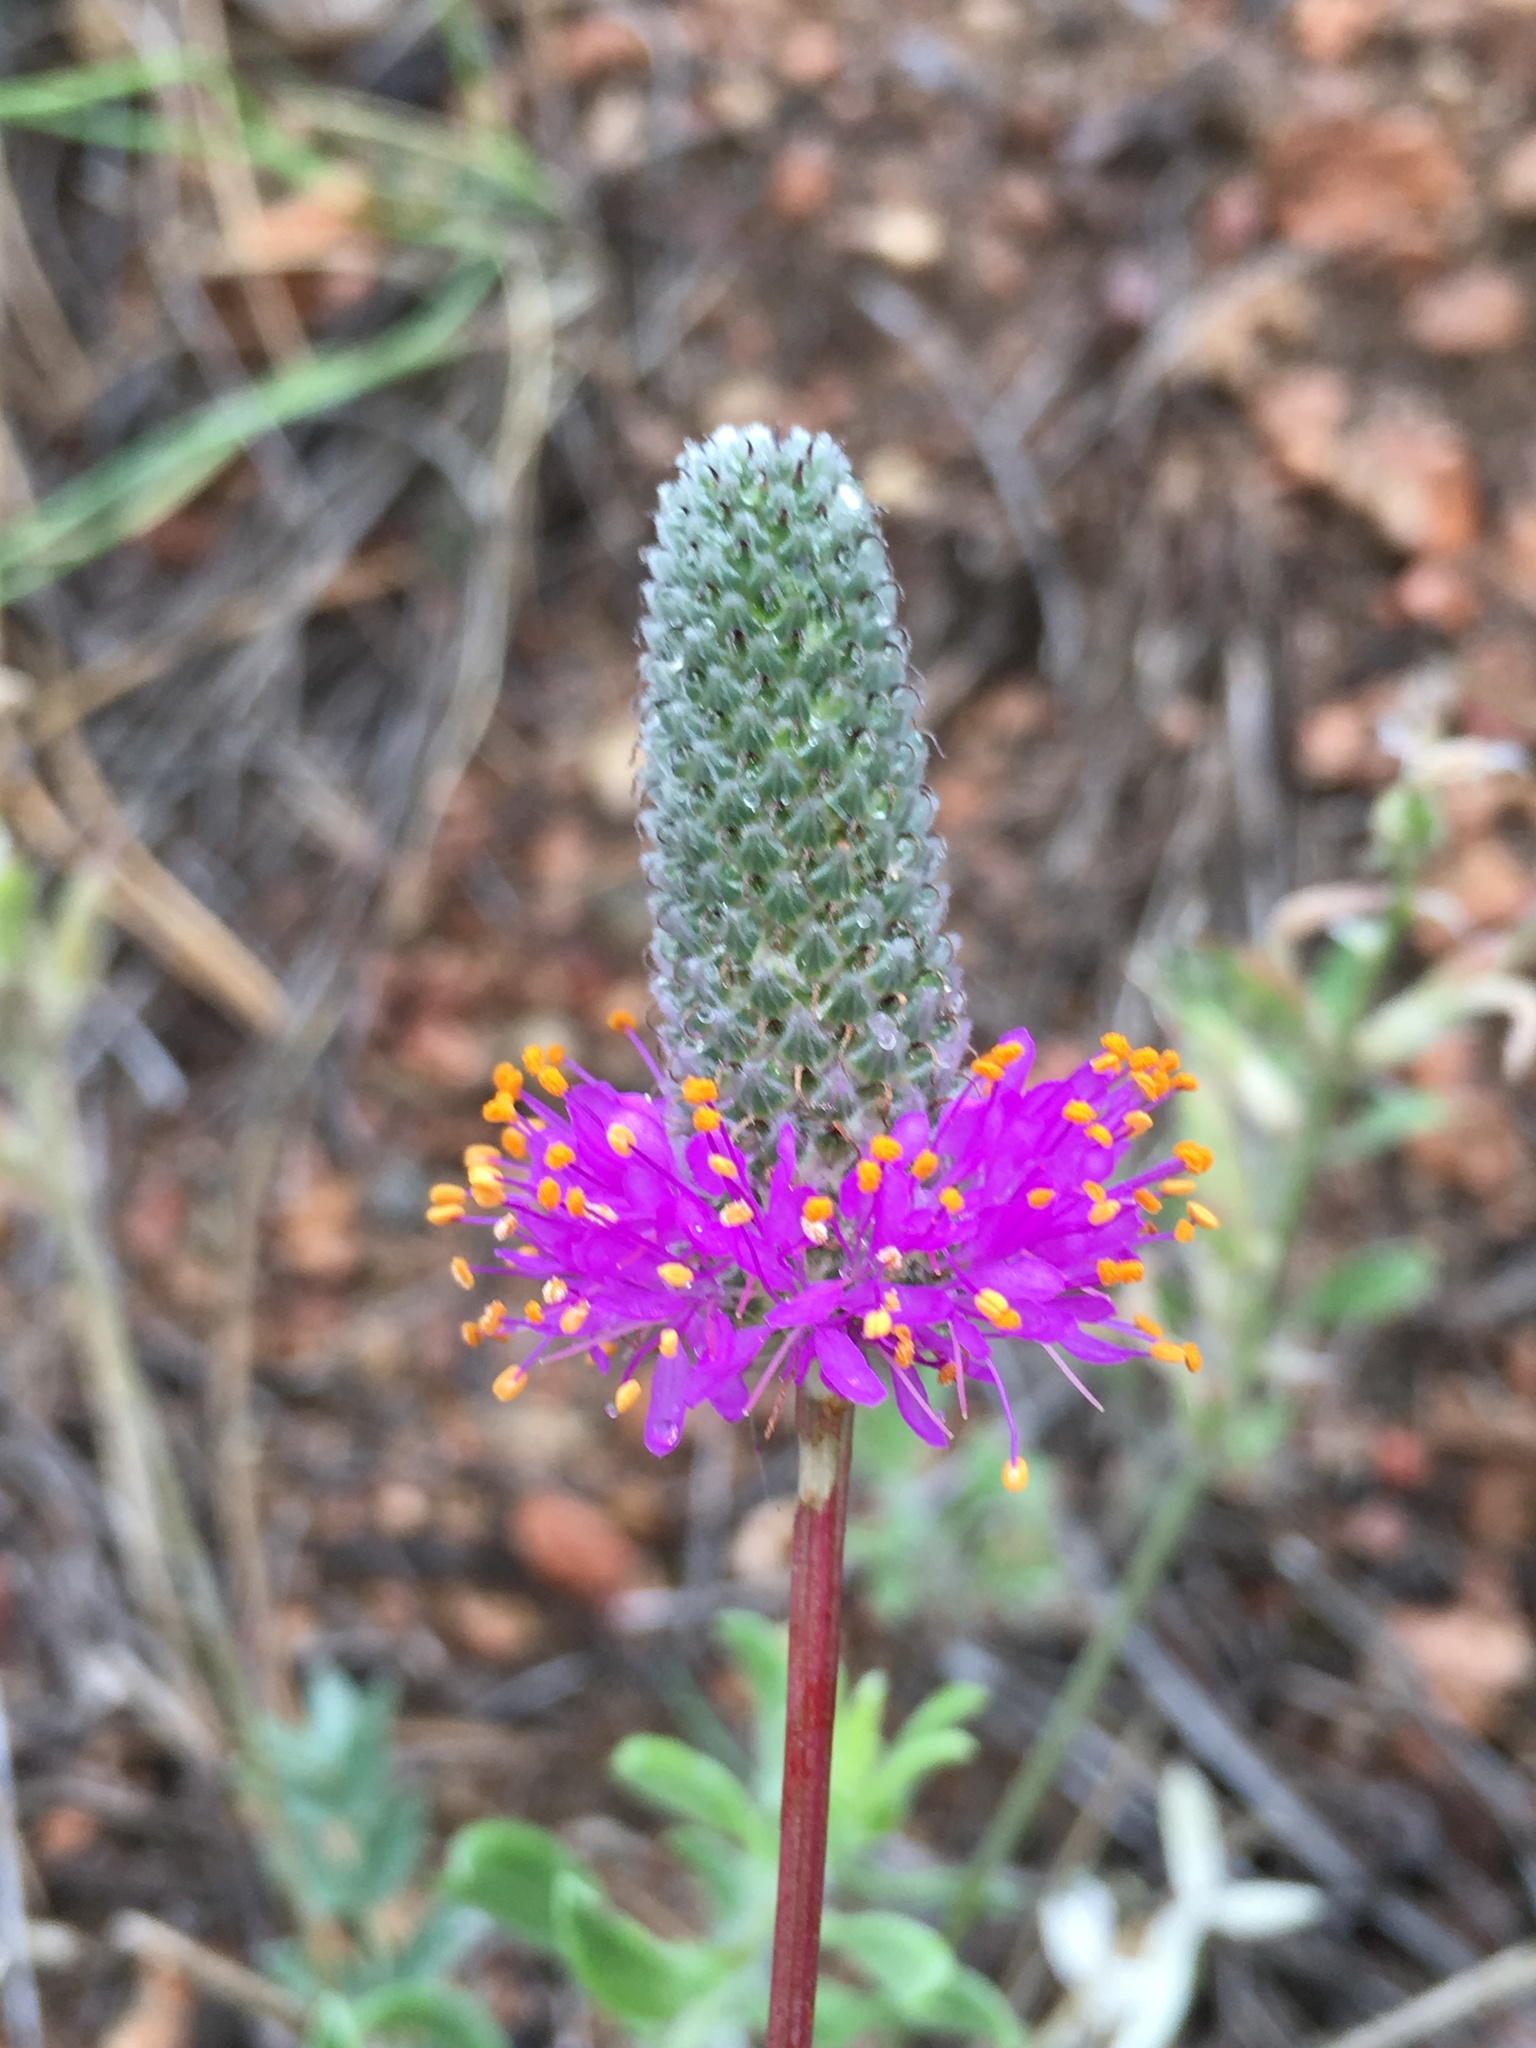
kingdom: Plantae
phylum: Tracheophyta
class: Magnoliopsida
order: Fabales
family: Fabaceae
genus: Dalea
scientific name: Dalea purpurea
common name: Purple prairie-clover
